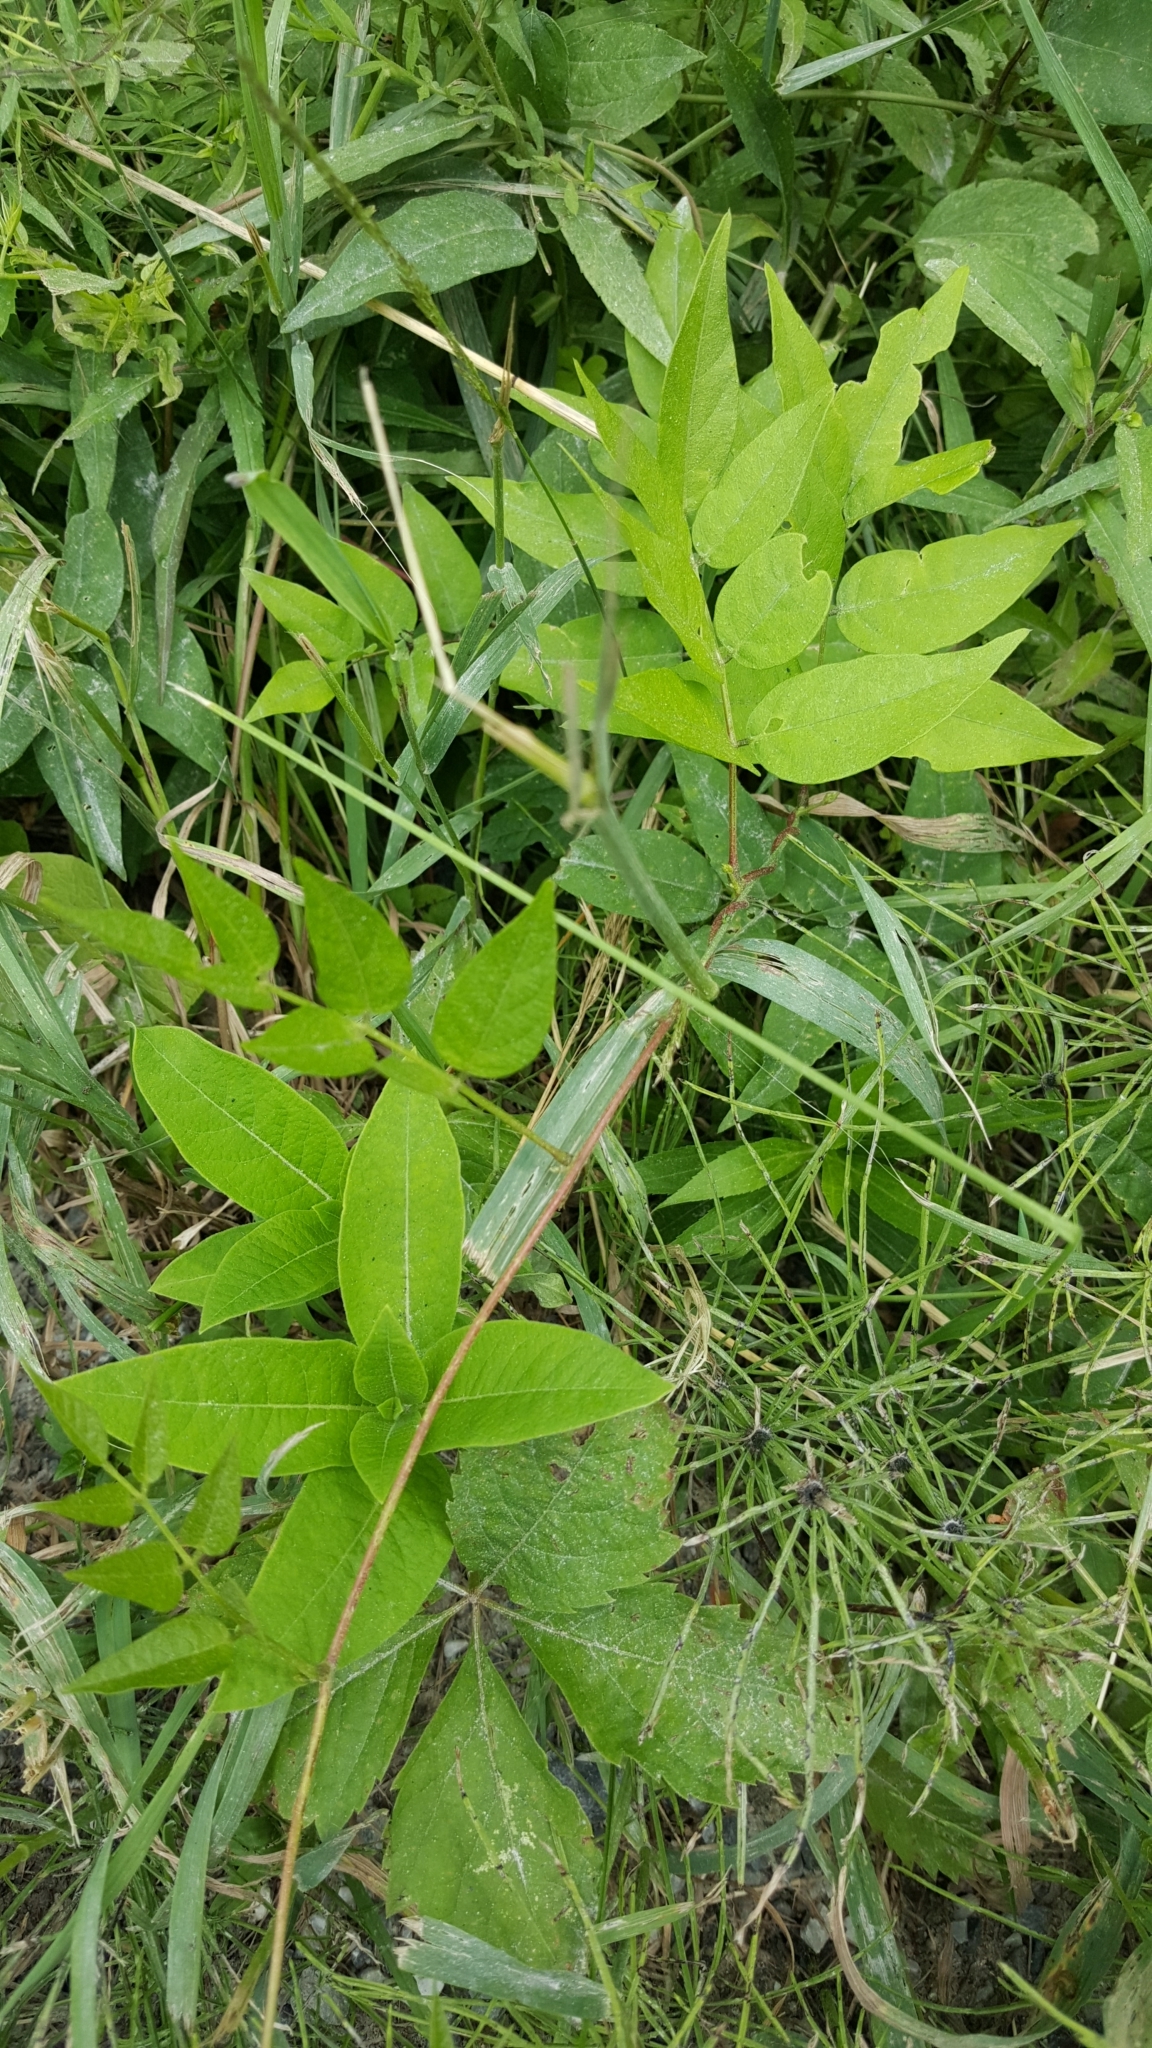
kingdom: Plantae
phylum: Tracheophyta
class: Magnoliopsida
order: Fabales
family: Fabaceae
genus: Apios
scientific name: Apios americana
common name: American potato-bean
